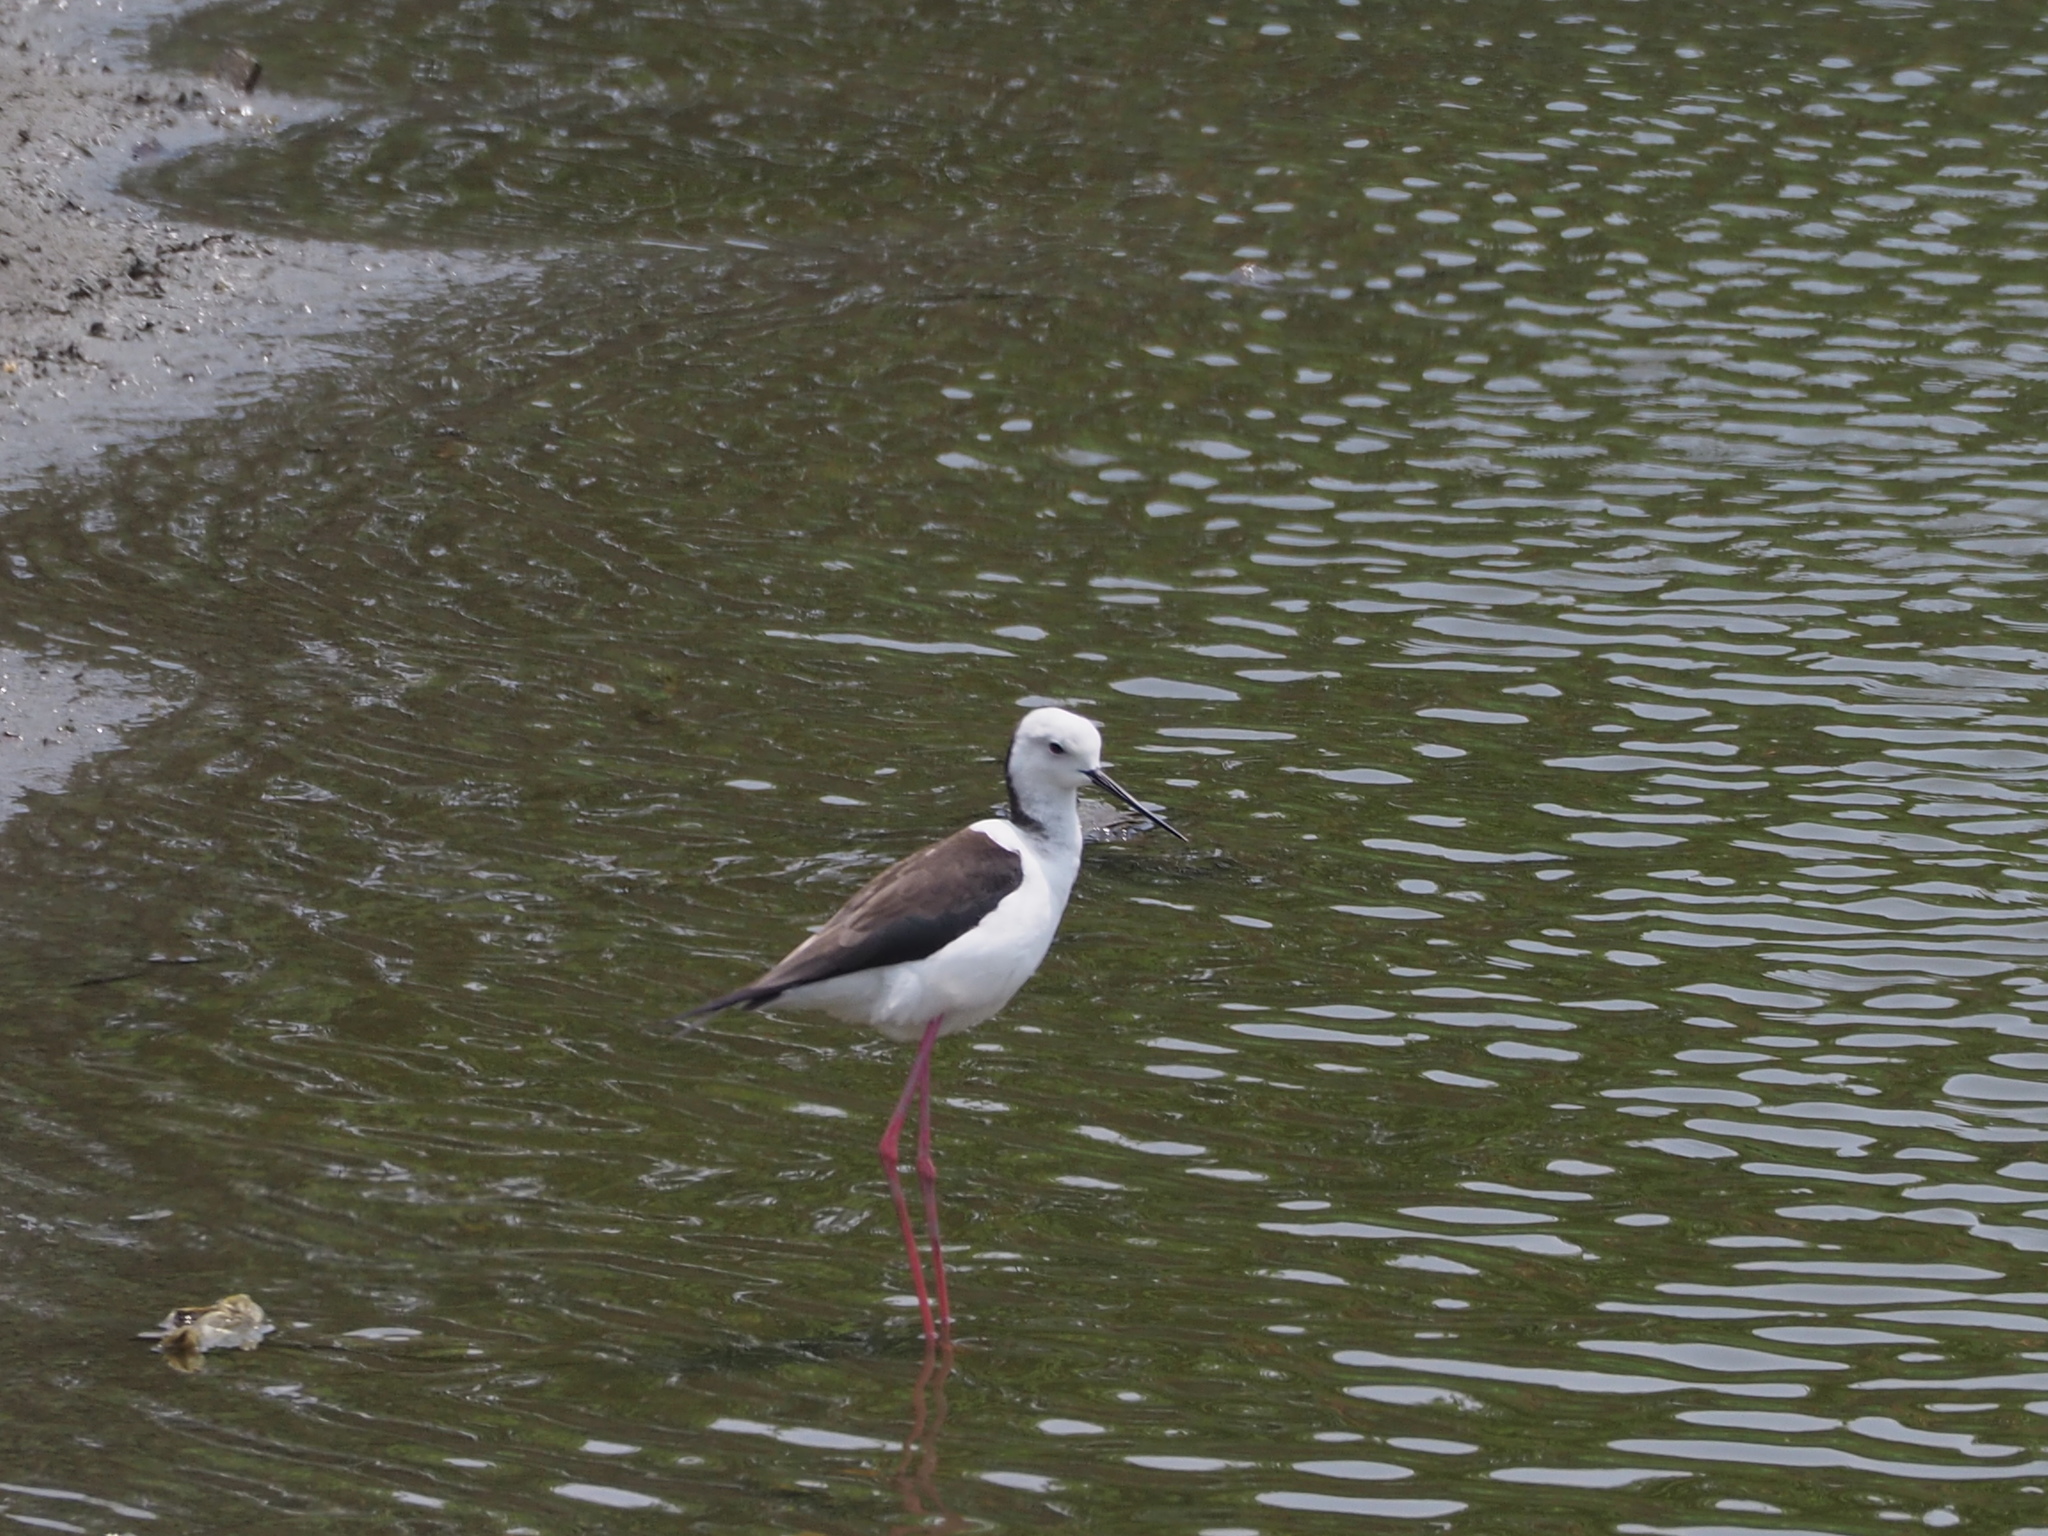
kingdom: Animalia
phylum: Chordata
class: Aves
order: Charadriiformes
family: Recurvirostridae
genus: Himantopus
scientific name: Himantopus himantopus
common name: Black-winged stilt
